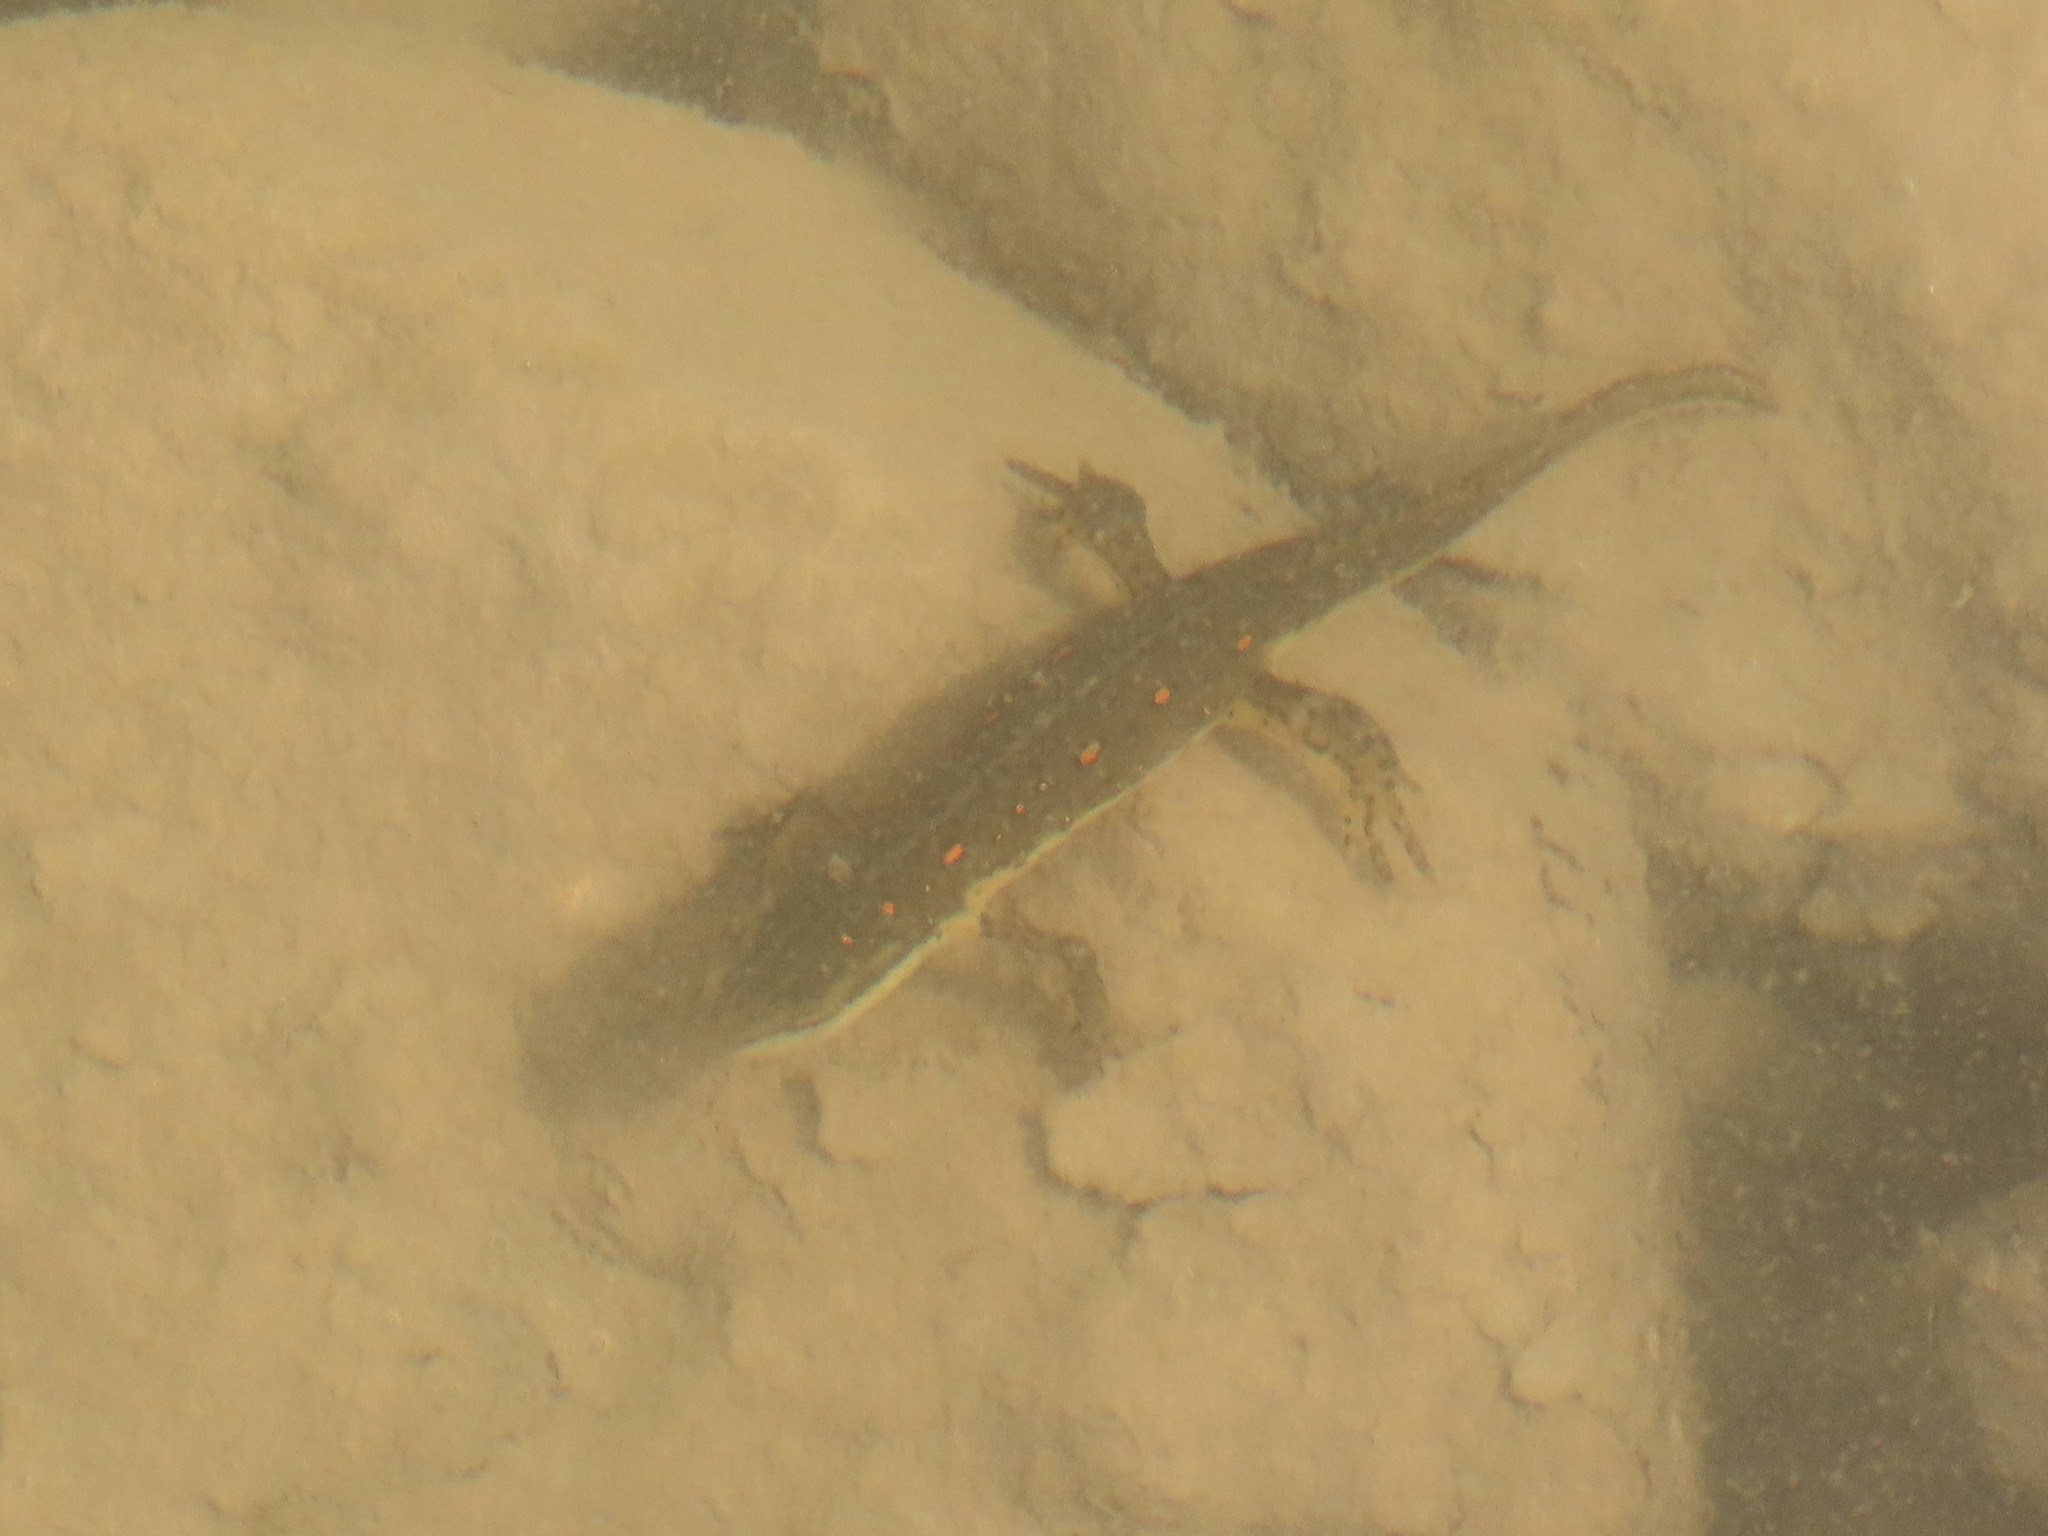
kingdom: Animalia
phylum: Chordata
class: Amphibia
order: Caudata
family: Salamandridae
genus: Notophthalmus
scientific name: Notophthalmus viridescens
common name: Eastern newt
